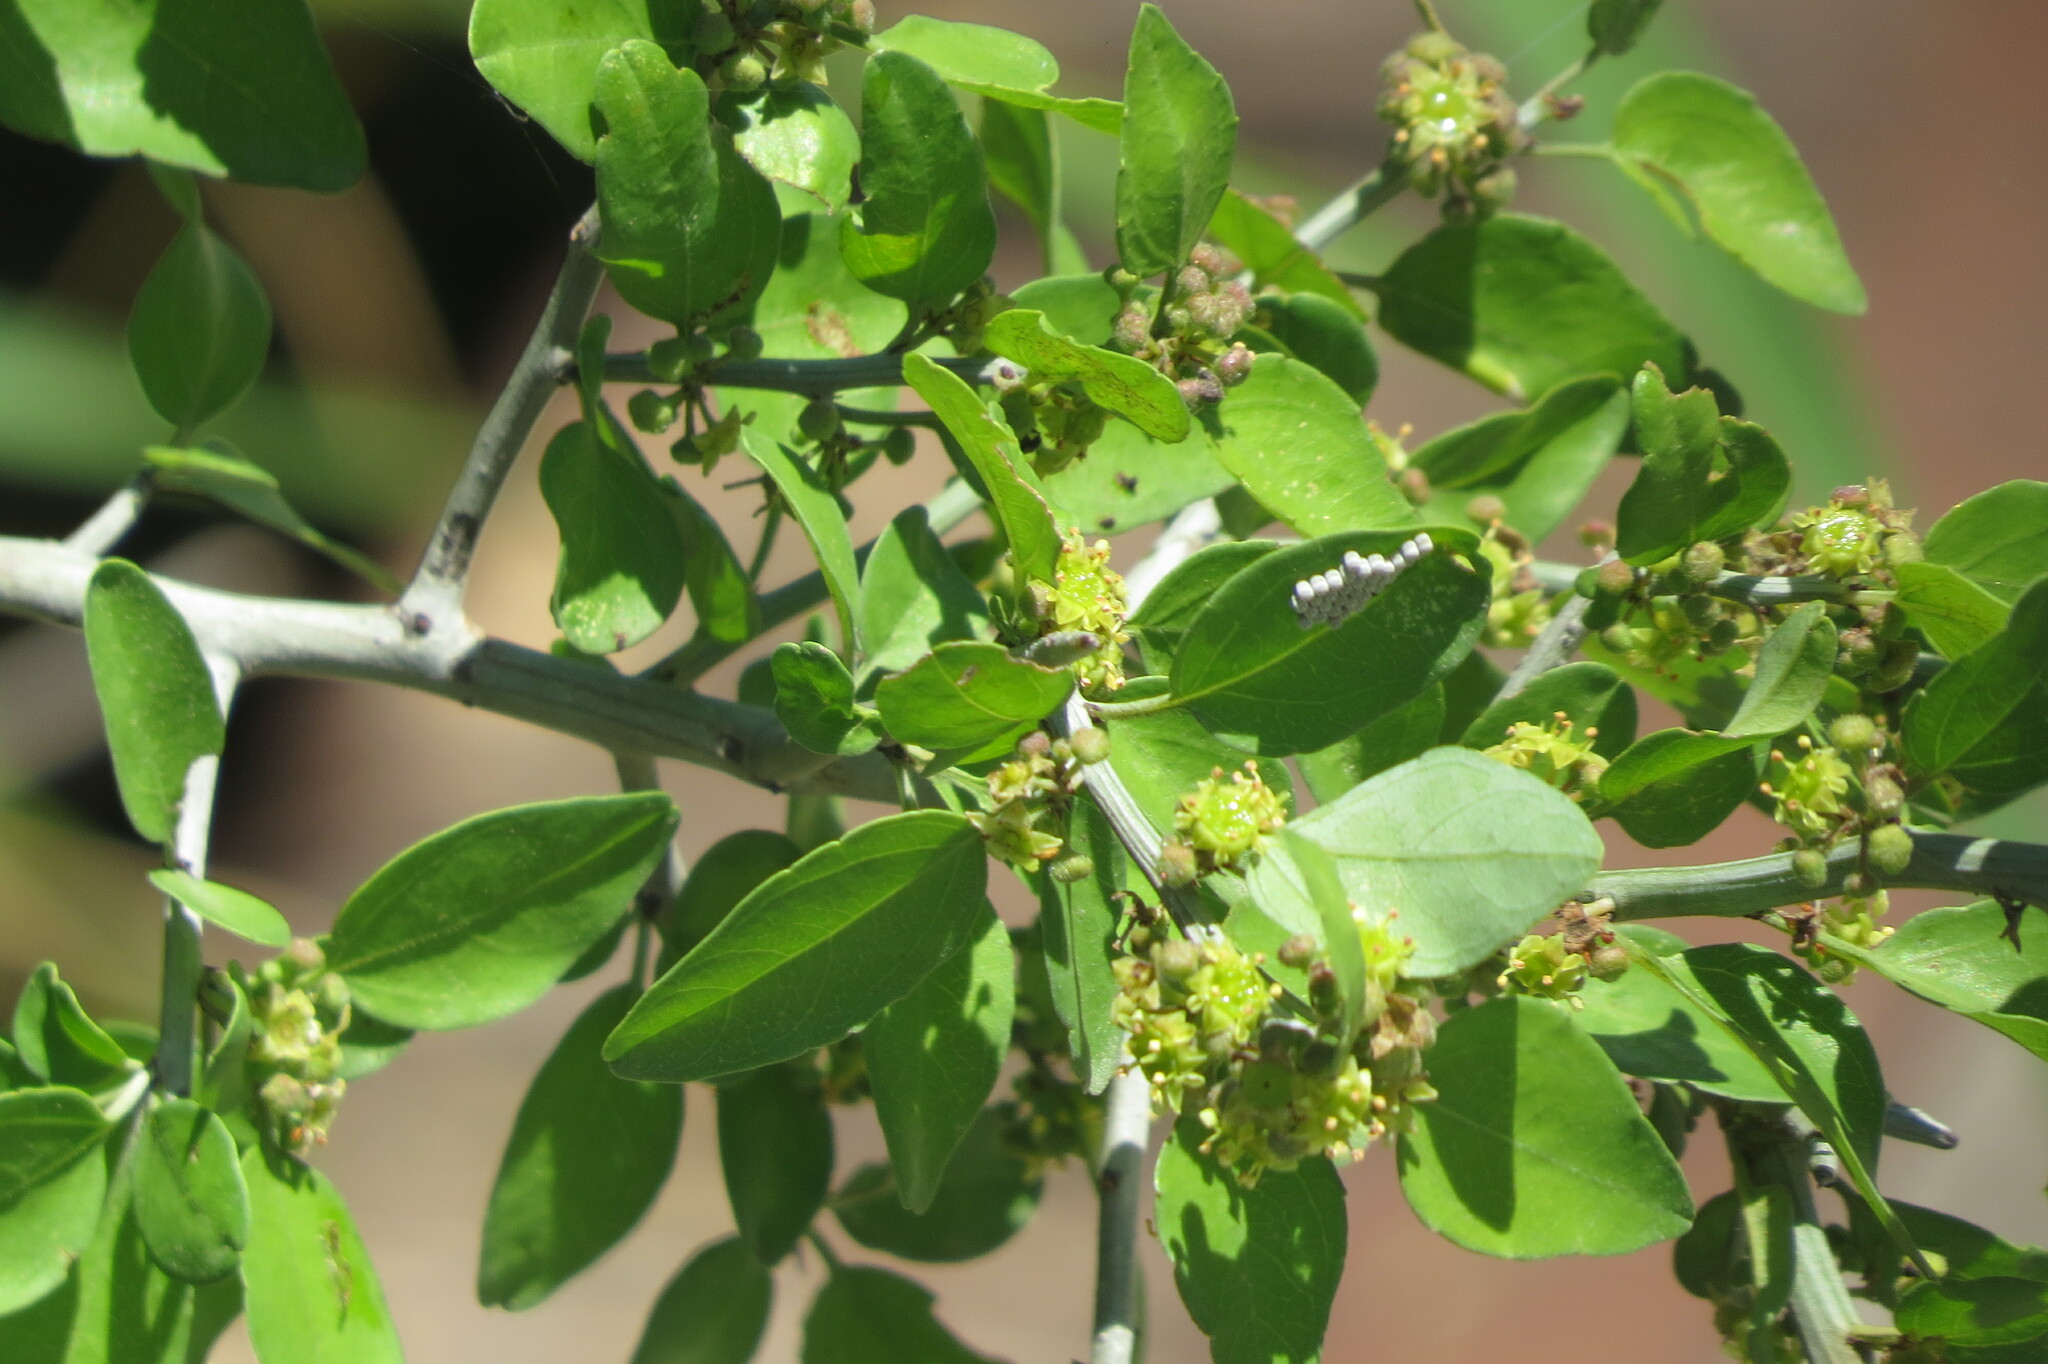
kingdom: Plantae
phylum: Tracheophyta
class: Magnoliopsida
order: Rosales
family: Rhamnaceae
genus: Sarcomphalus
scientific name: Sarcomphalus obtusifolius
